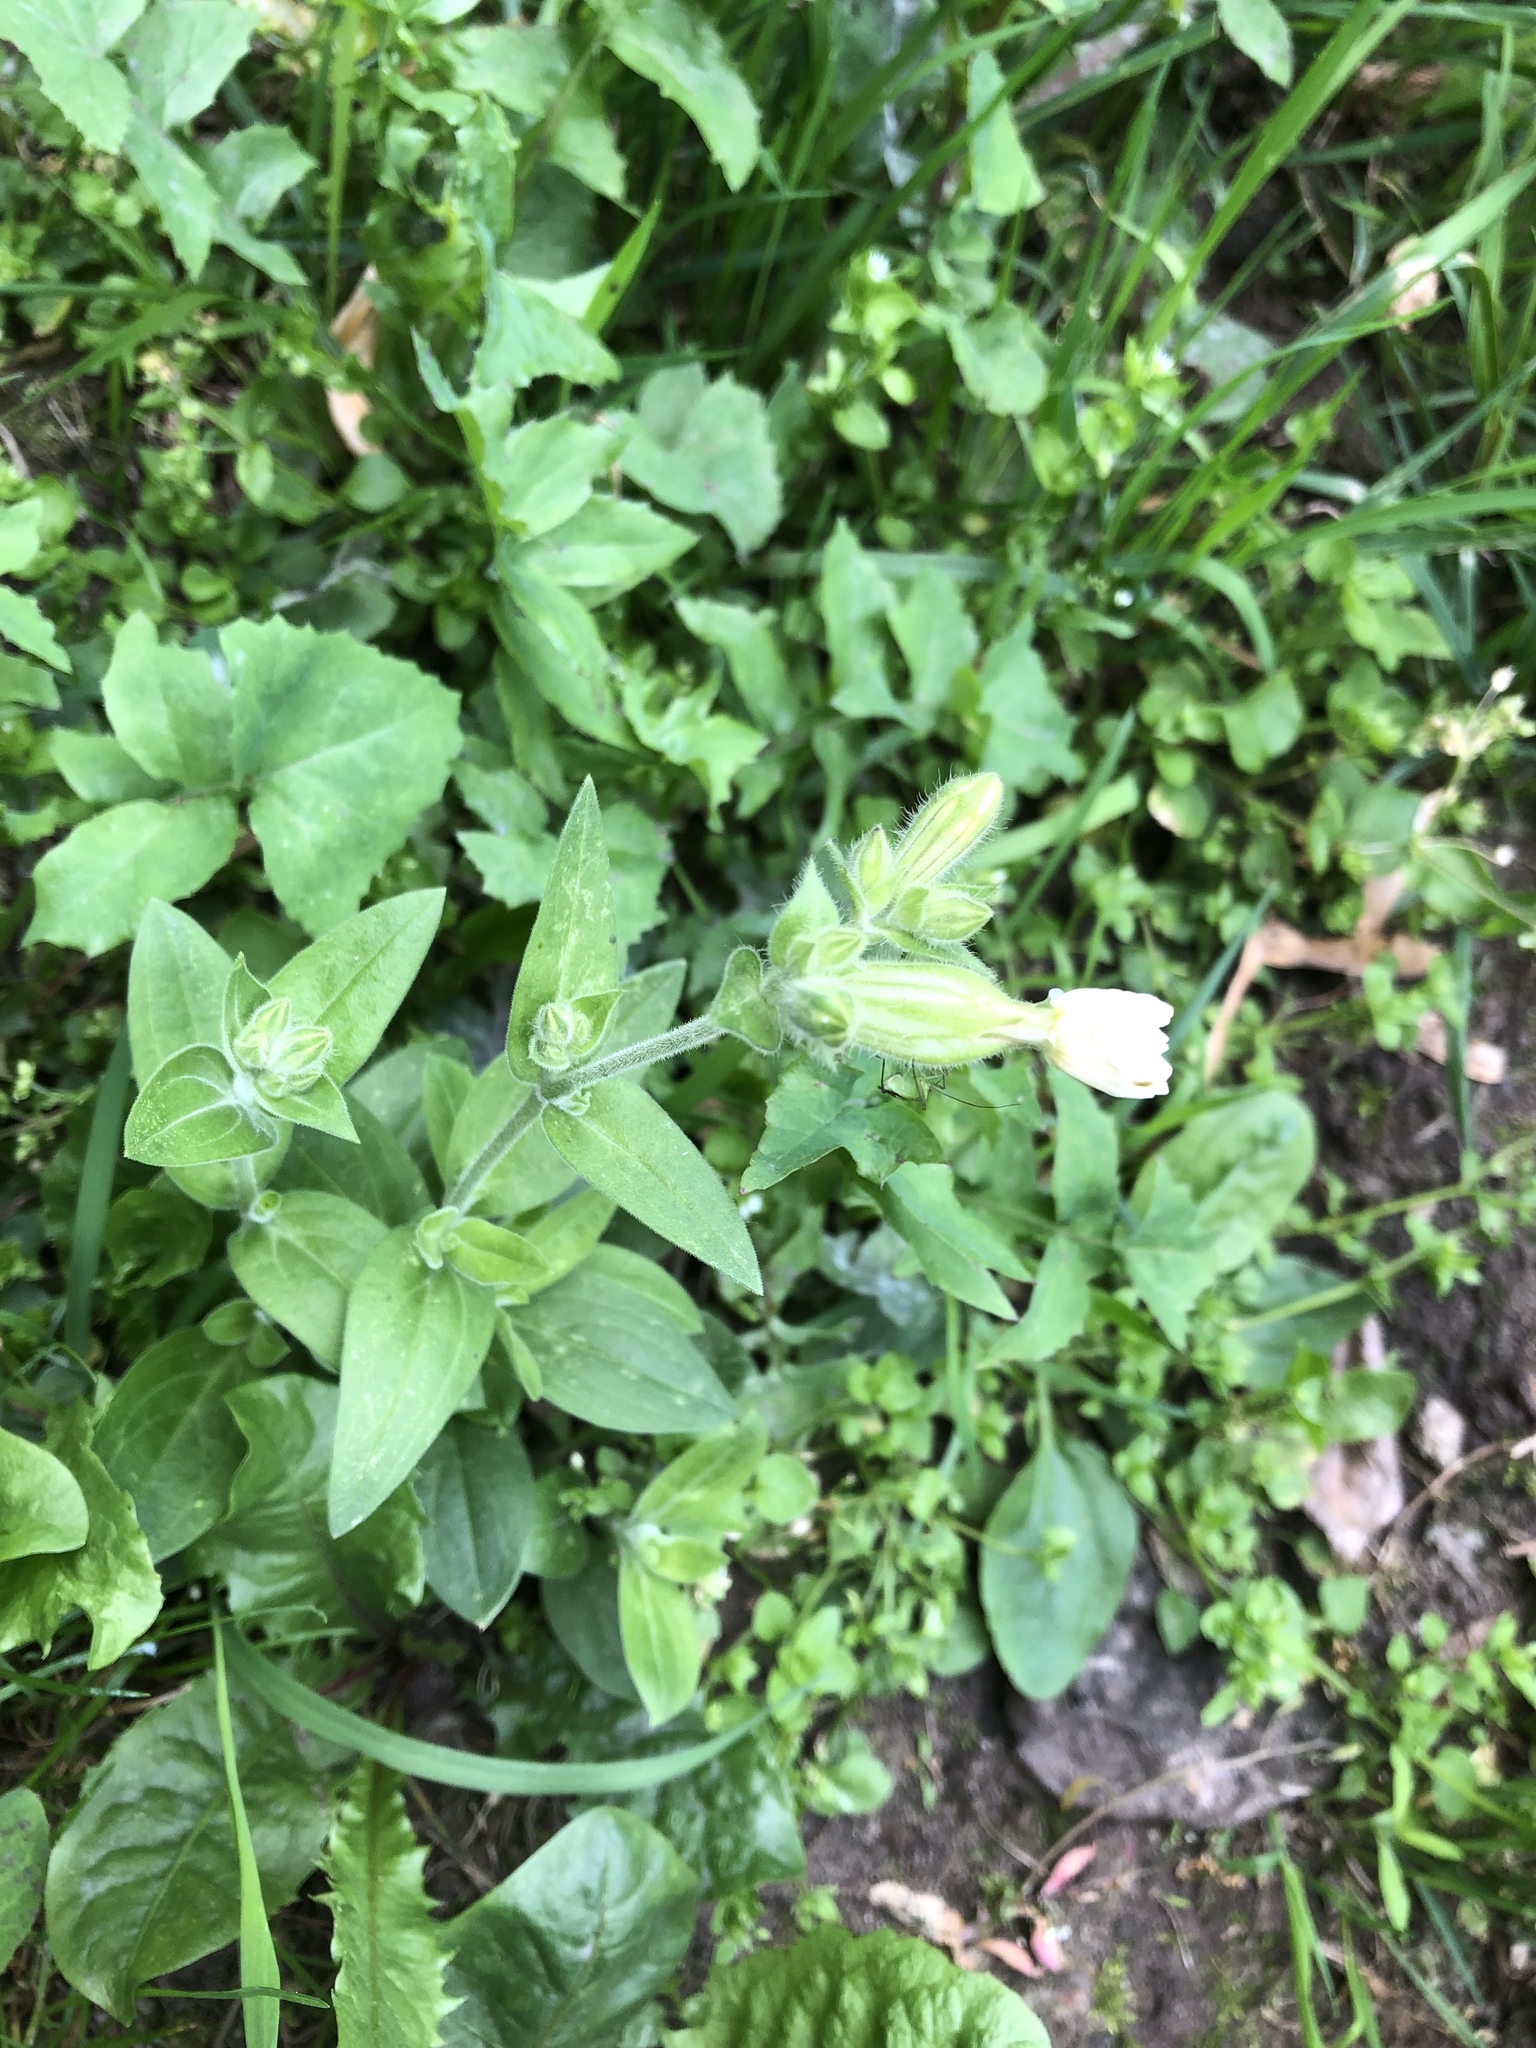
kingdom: Plantae
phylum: Tracheophyta
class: Magnoliopsida
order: Caryophyllales
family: Caryophyllaceae
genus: Silene
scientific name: Silene latifolia
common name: White campion
